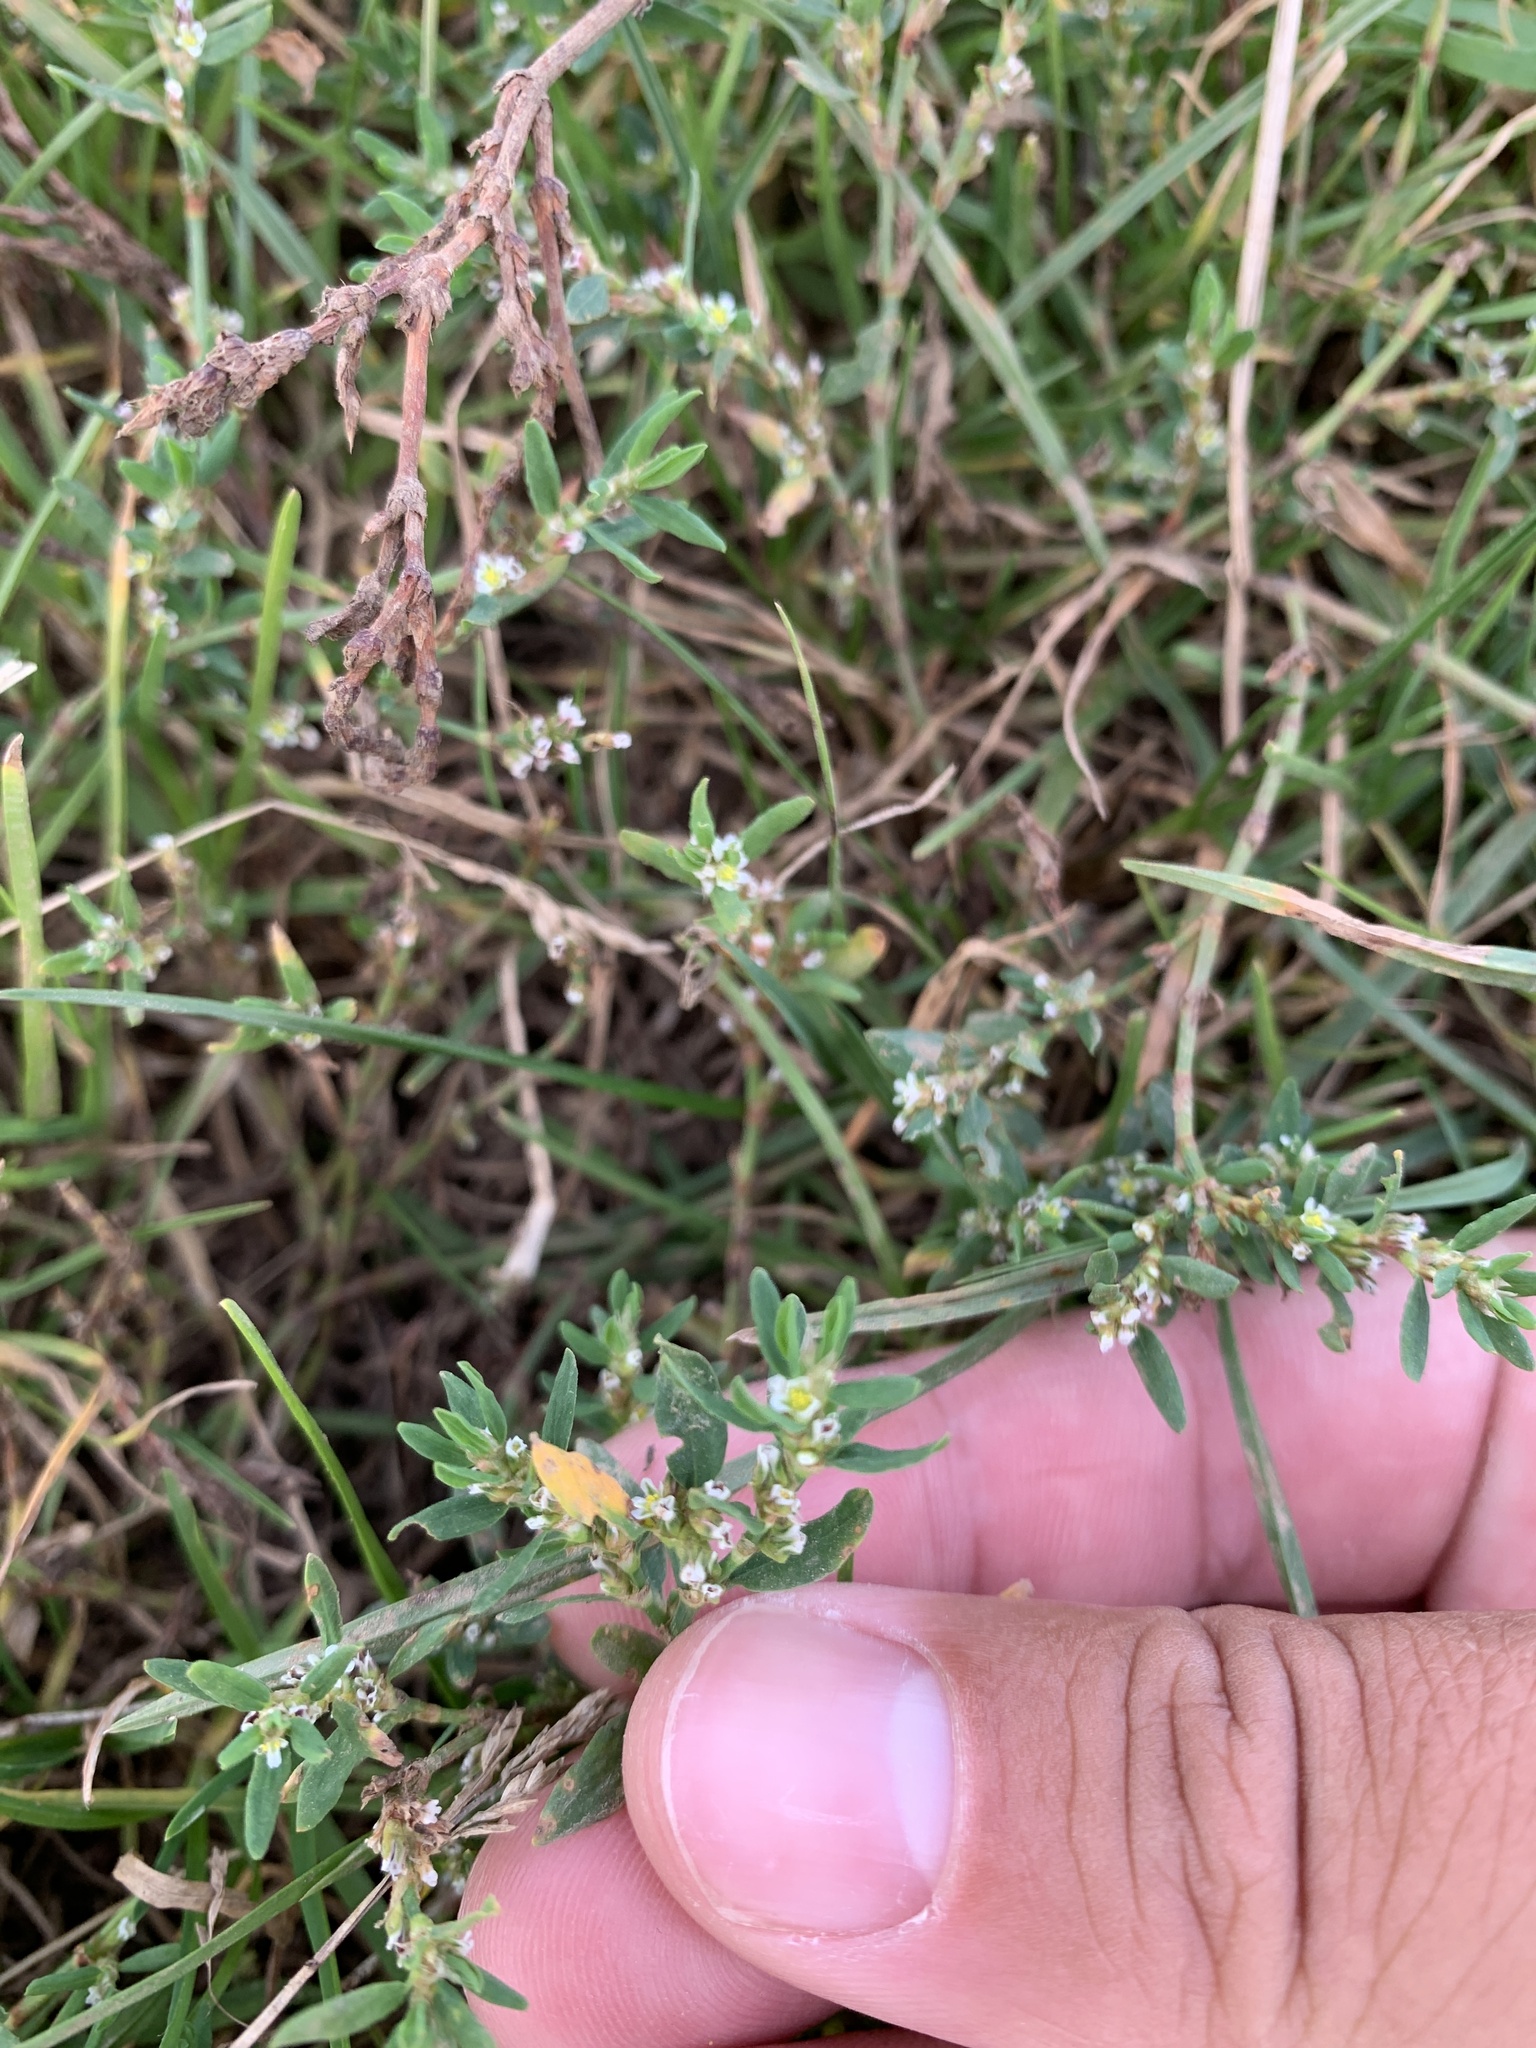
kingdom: Plantae
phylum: Tracheophyta
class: Magnoliopsida
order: Caryophyllales
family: Polygonaceae
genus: Polygonum
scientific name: Polygonum aviculare
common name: Prostrate knotweed
